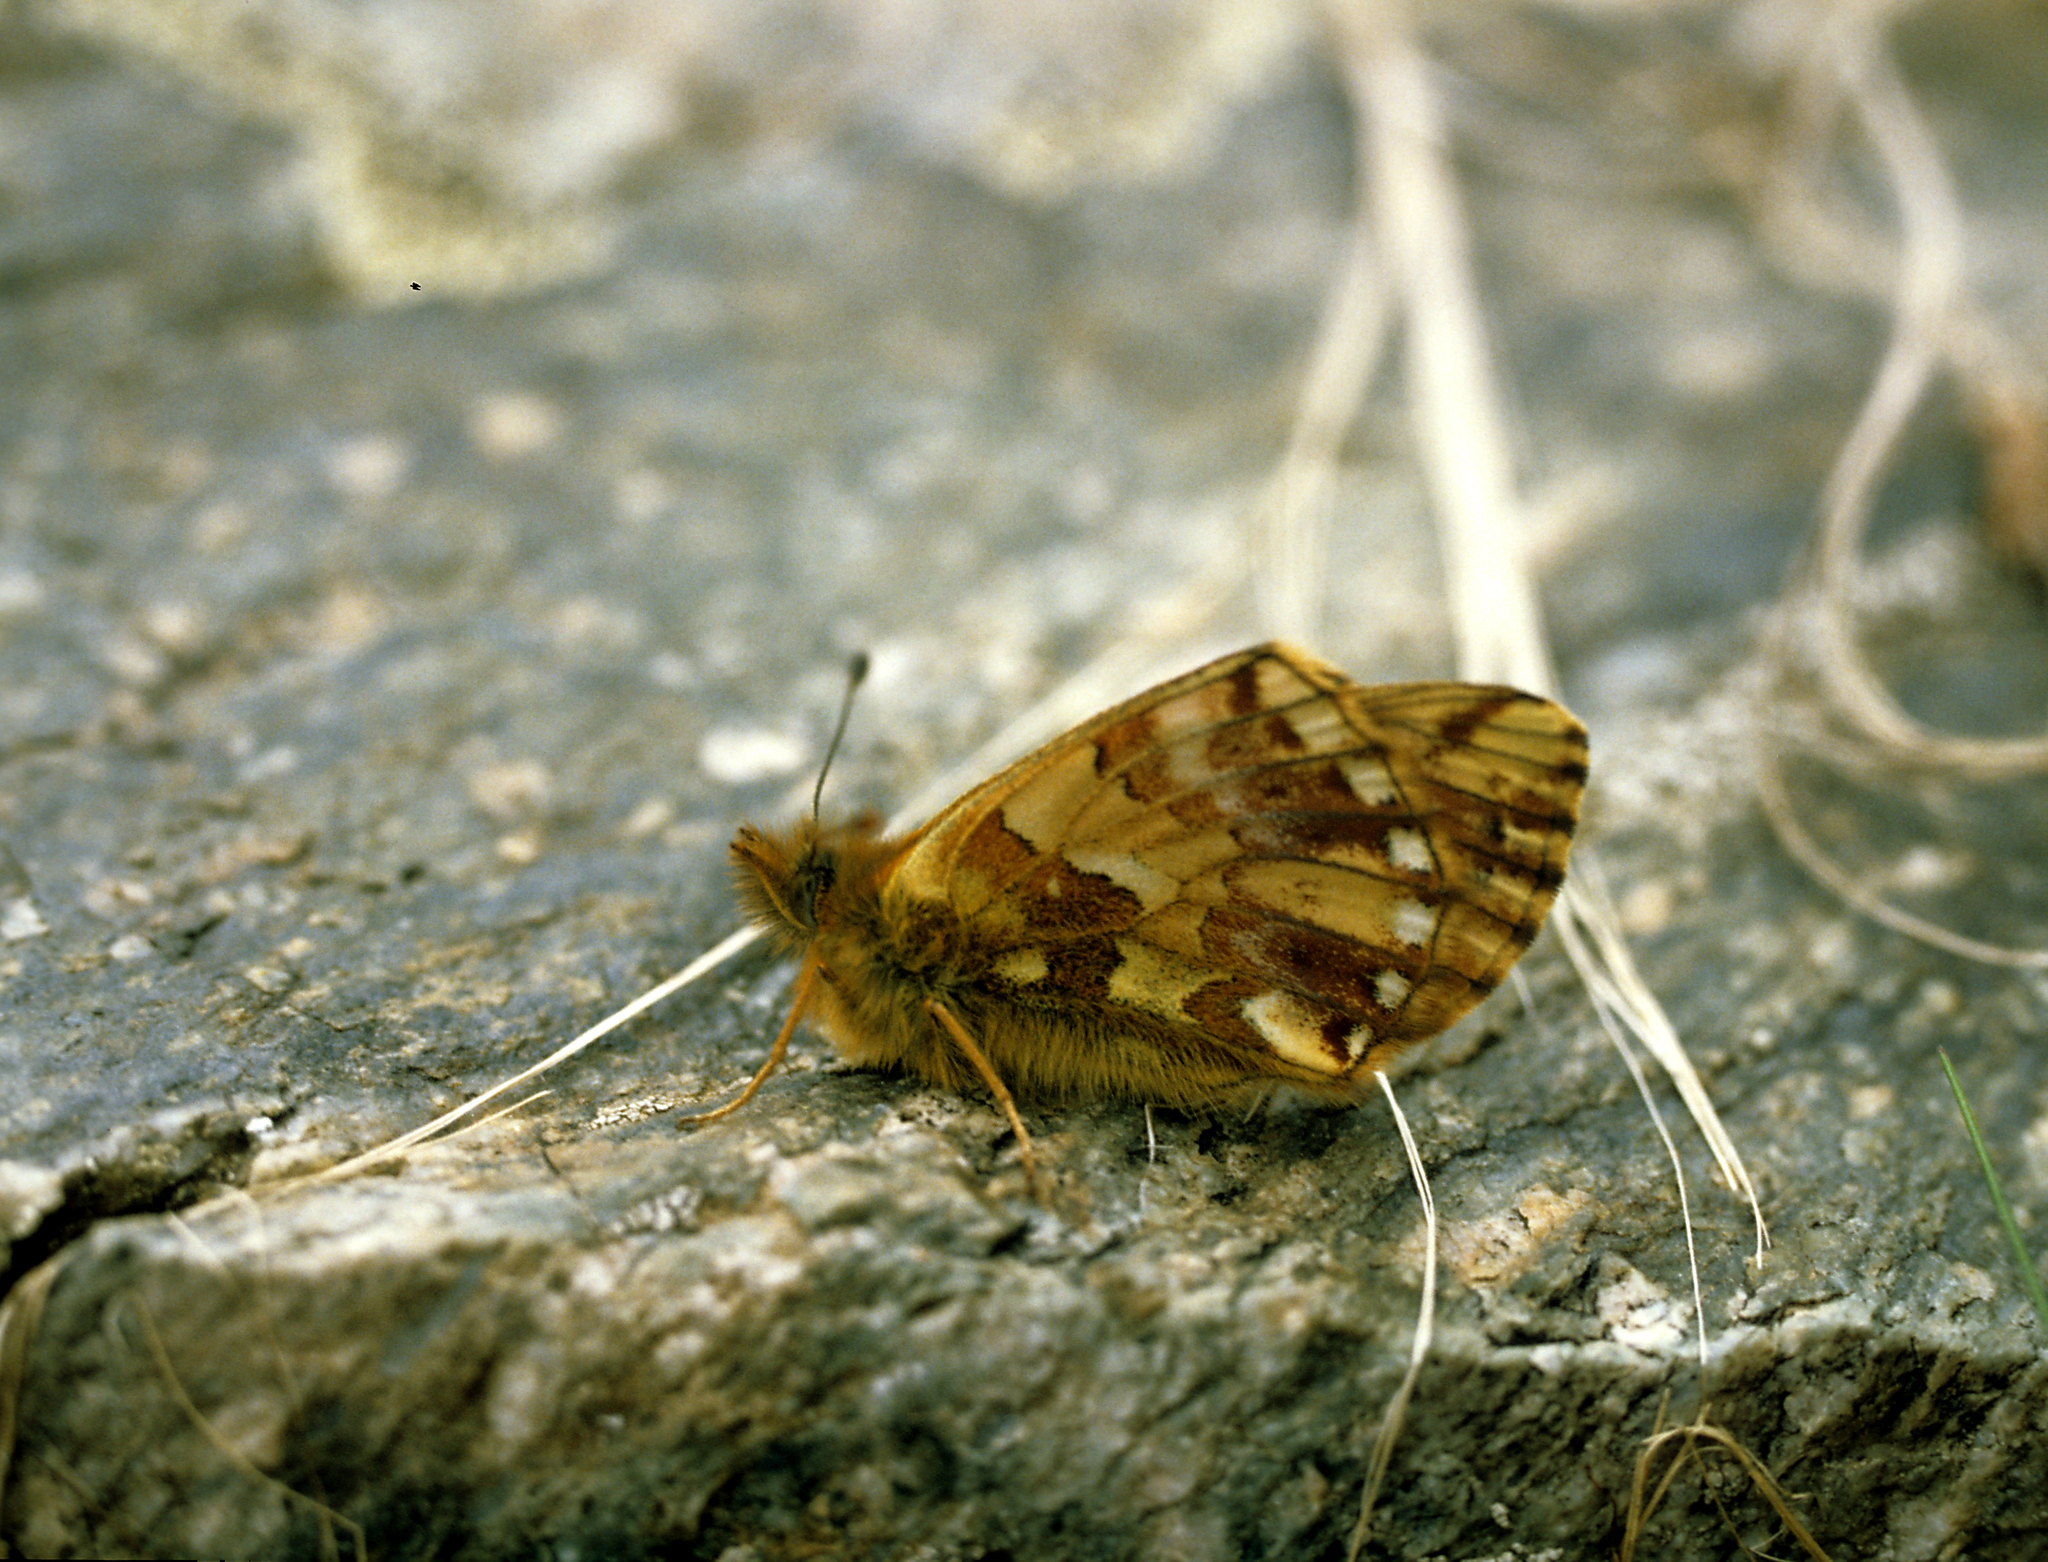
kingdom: Animalia
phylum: Arthropoda
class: Insecta
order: Lepidoptera
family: Nymphalidae
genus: Boloria
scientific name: Boloria sipora
